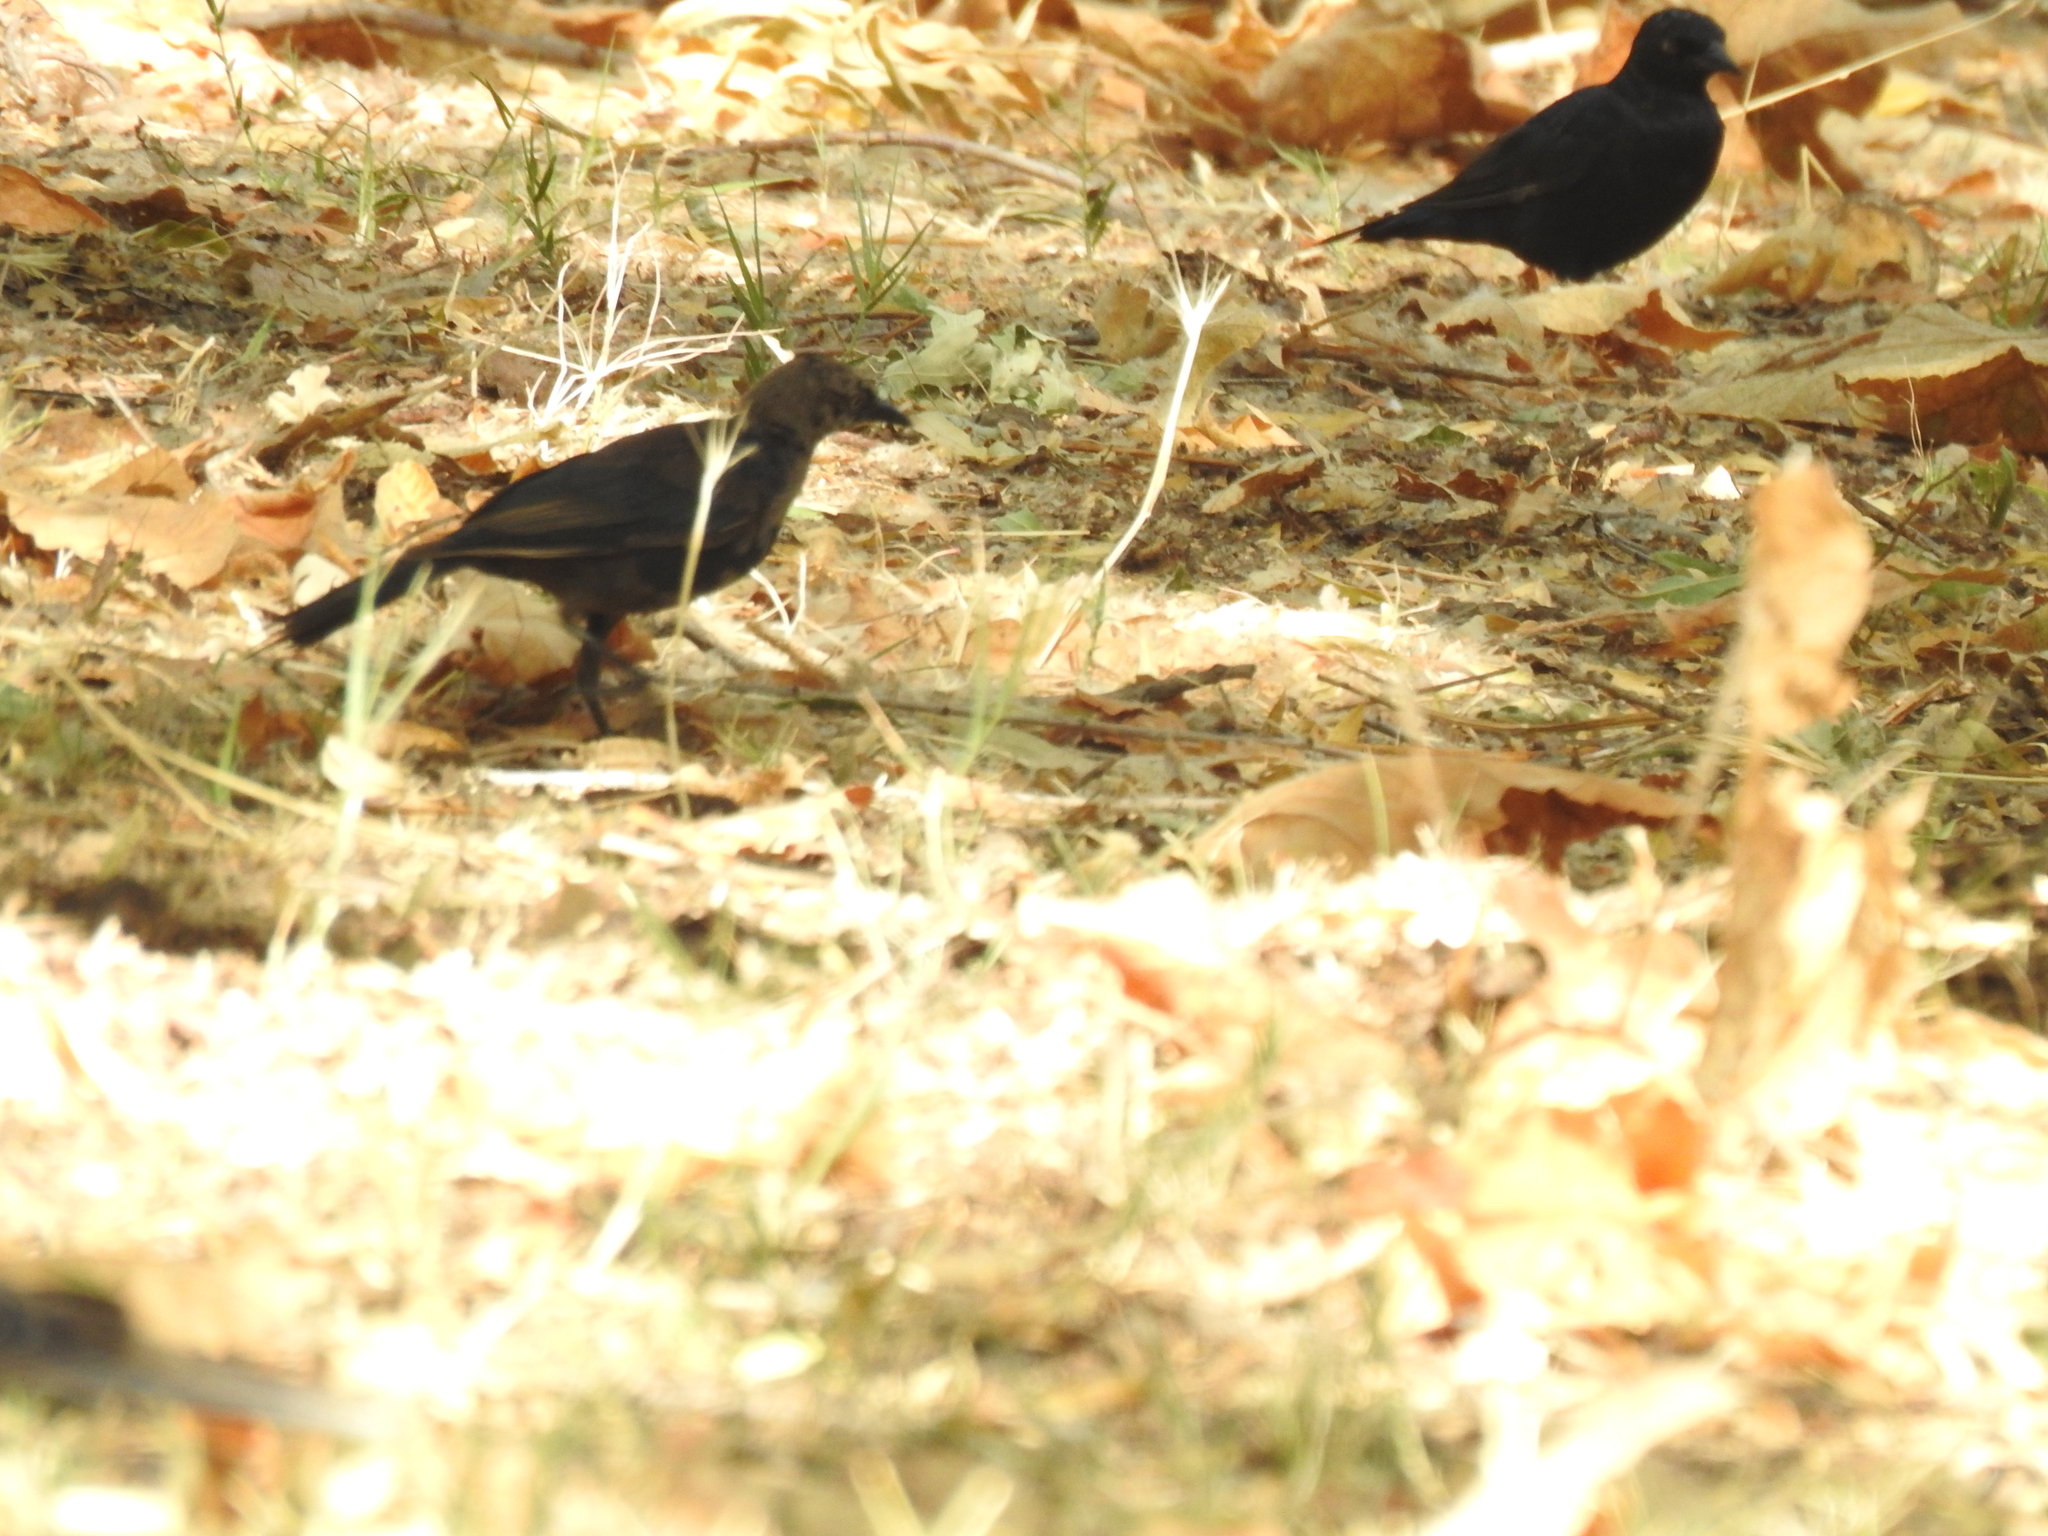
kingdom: Animalia
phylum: Chordata
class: Aves
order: Passeriformes
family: Icteridae
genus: Euphagus
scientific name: Euphagus cyanocephalus
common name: Brewer's blackbird
